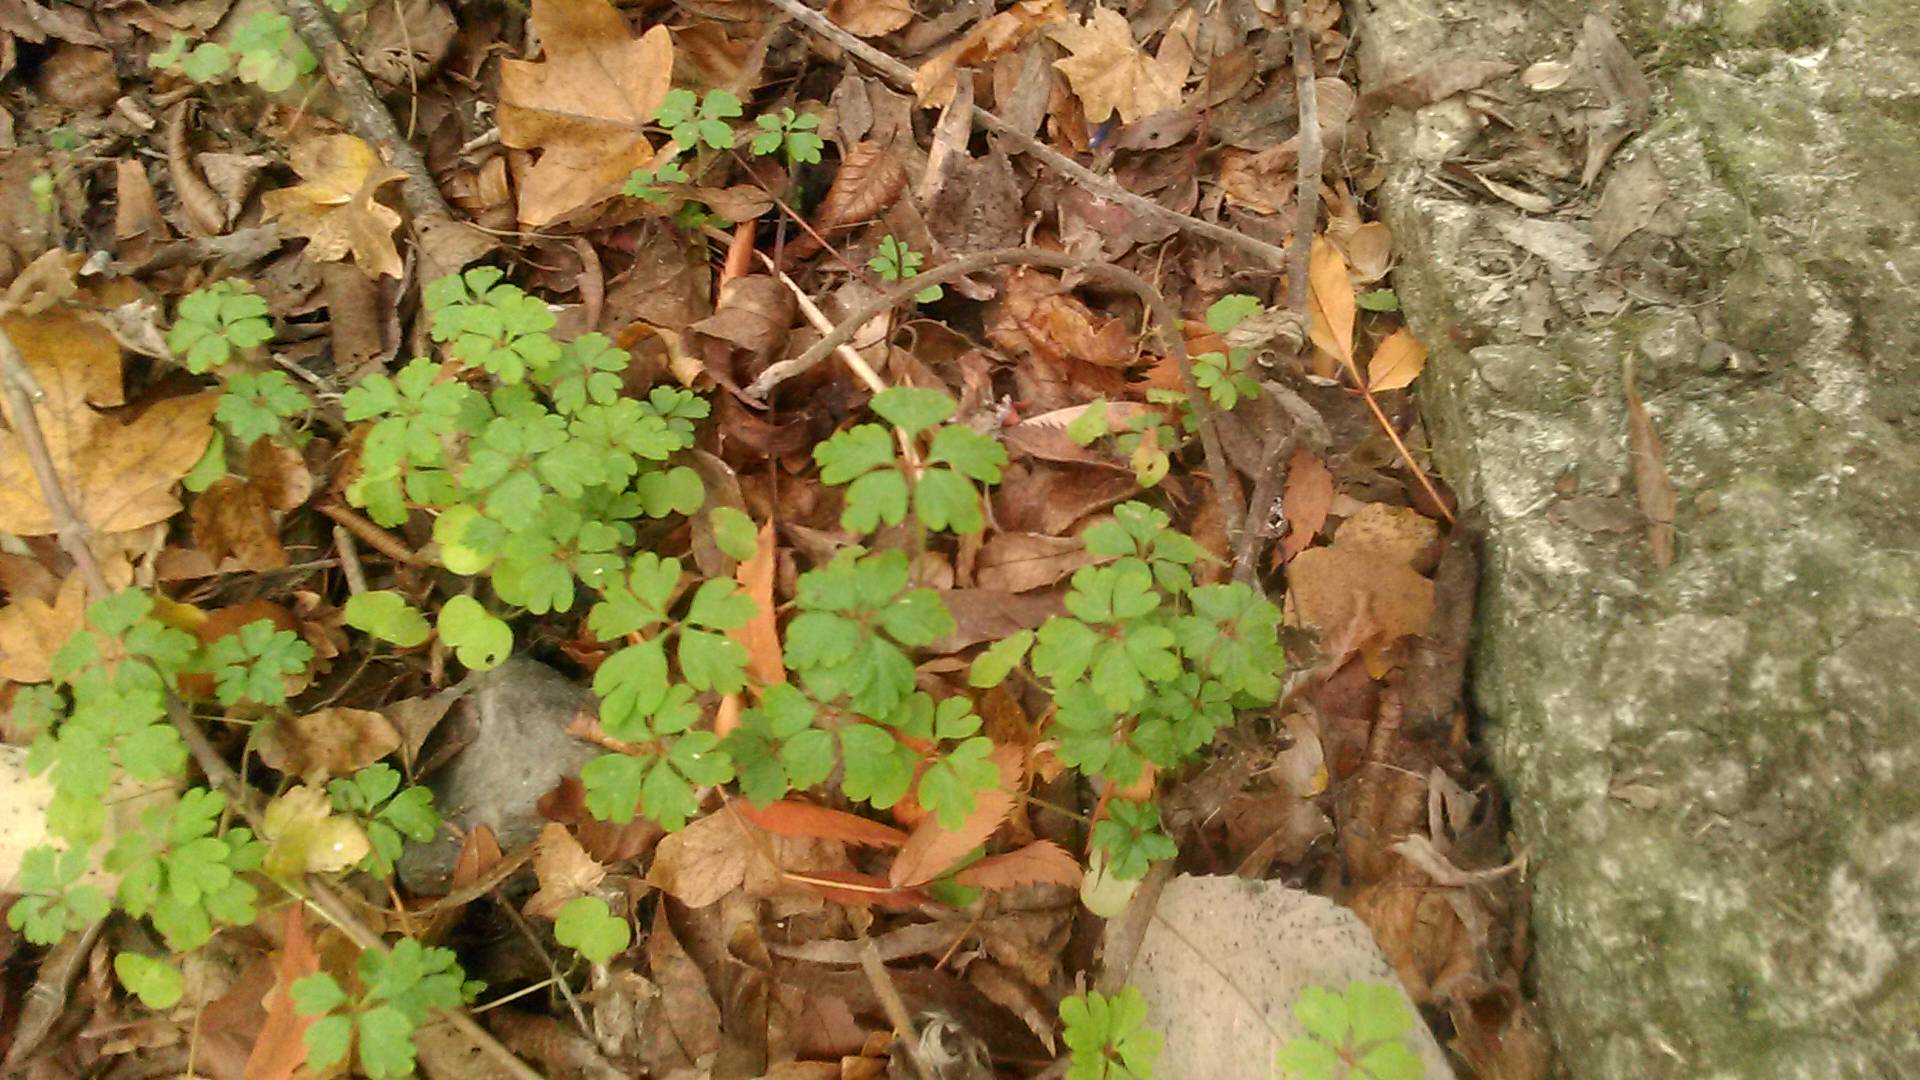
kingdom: Plantae
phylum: Tracheophyta
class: Magnoliopsida
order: Geraniales
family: Geraniaceae
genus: Geranium
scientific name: Geranium robertianum
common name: Herb-robert
